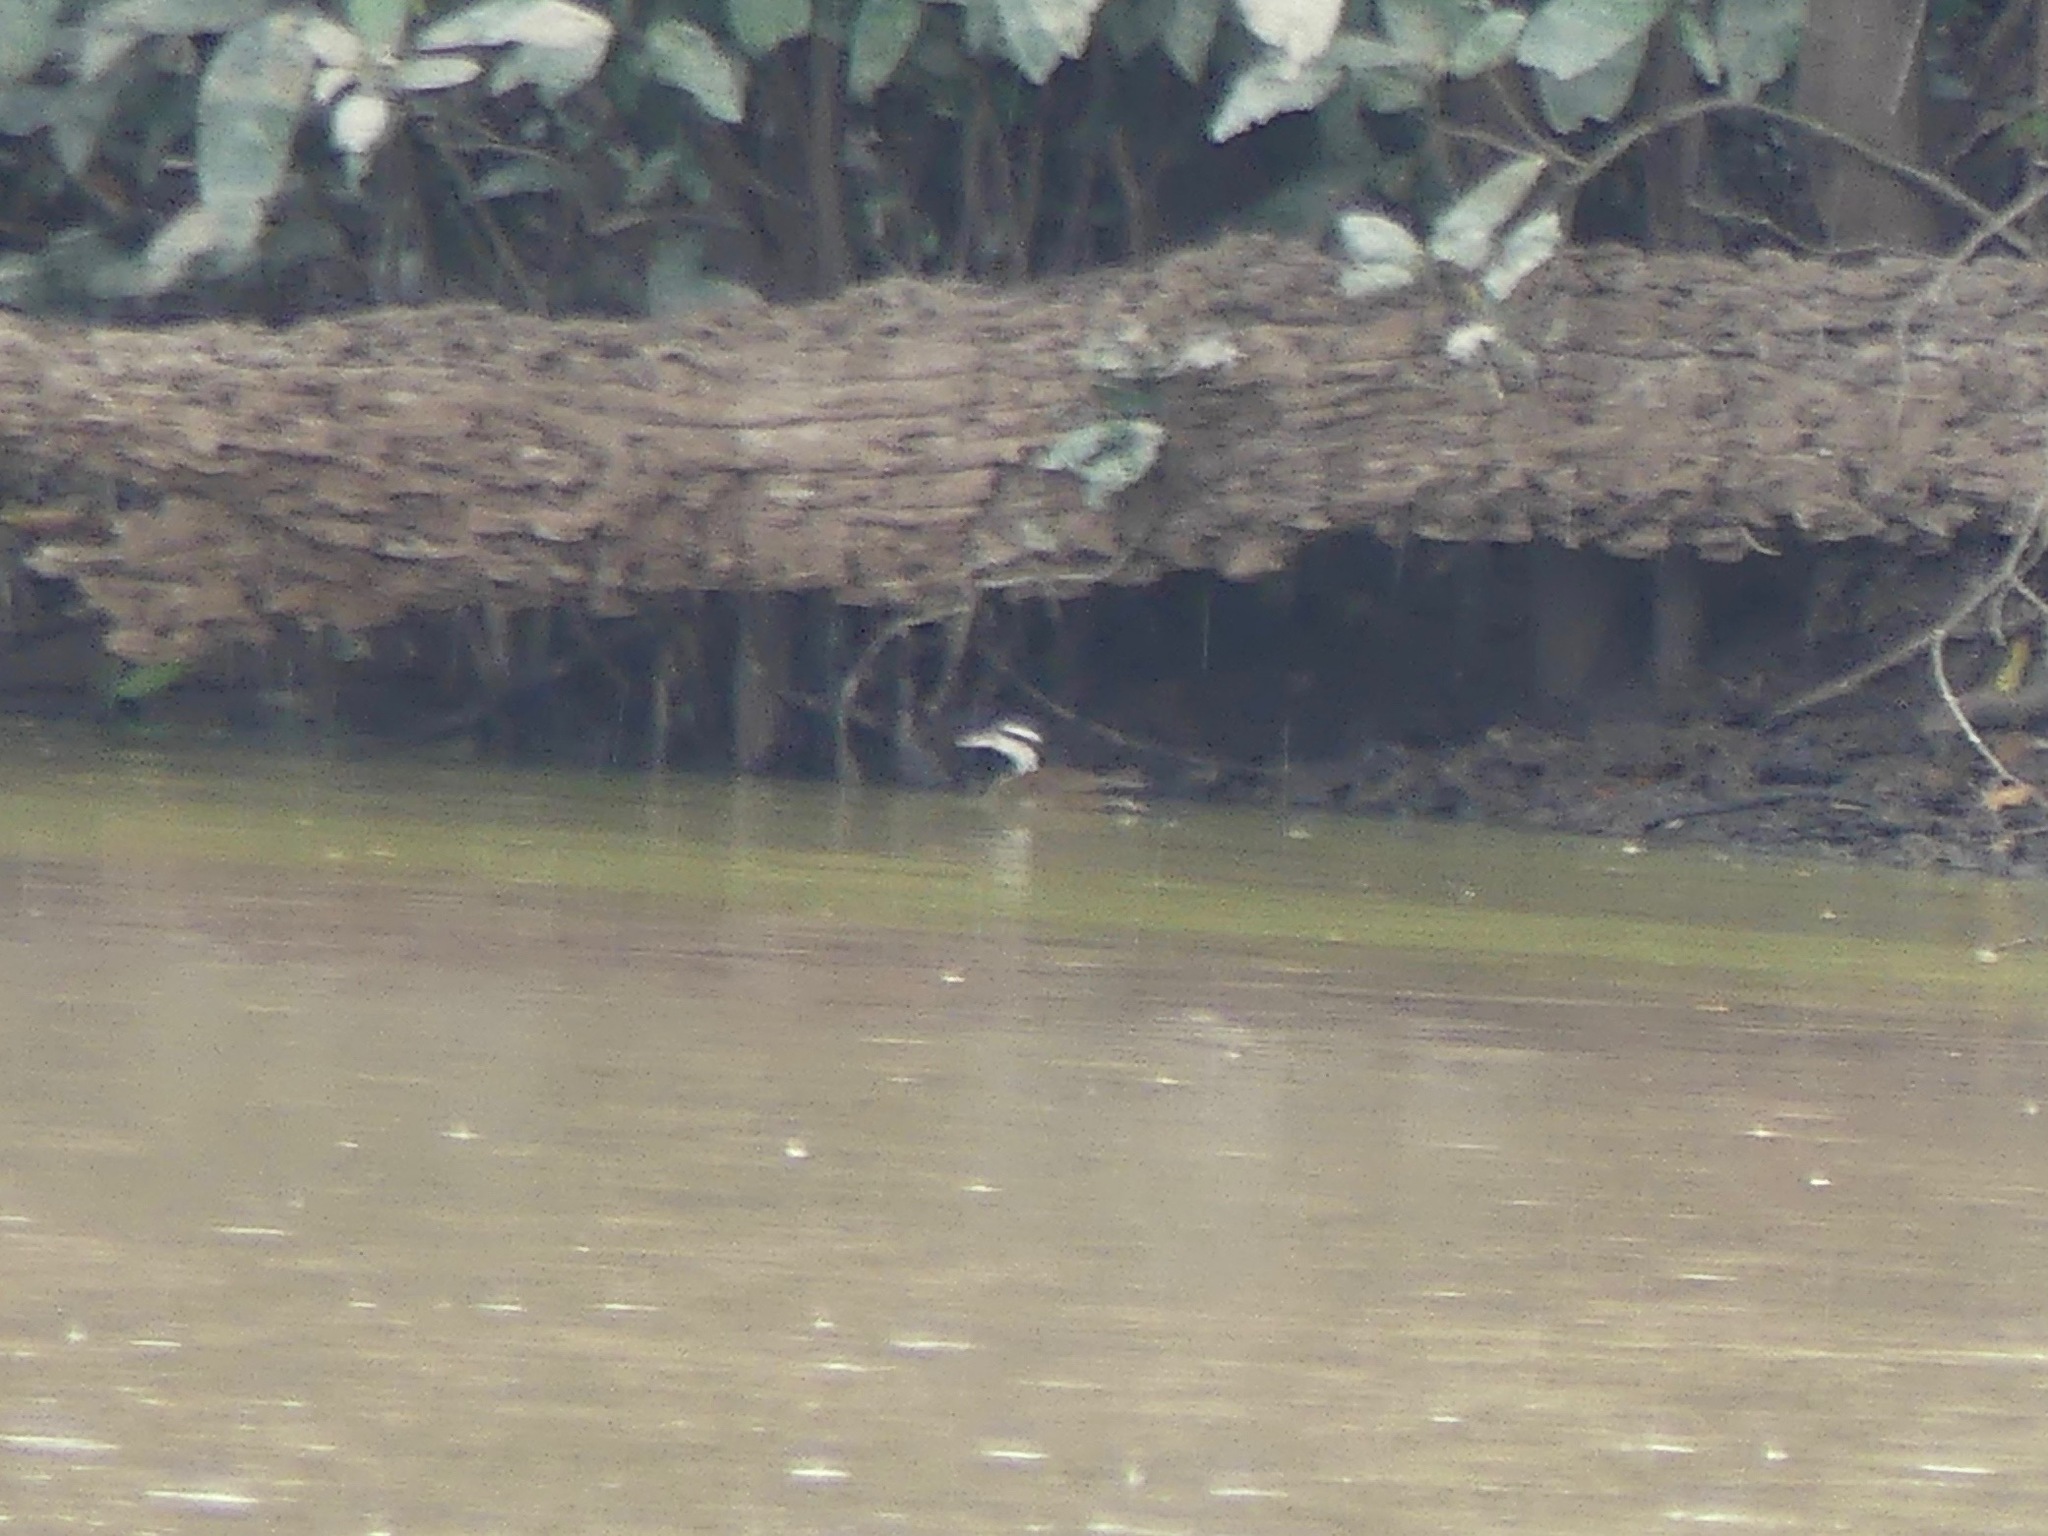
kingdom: Animalia
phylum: Chordata
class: Aves
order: Gruiformes
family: Heliornithidae
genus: Heliornis
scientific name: Heliornis fulica
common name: Sungrebe
